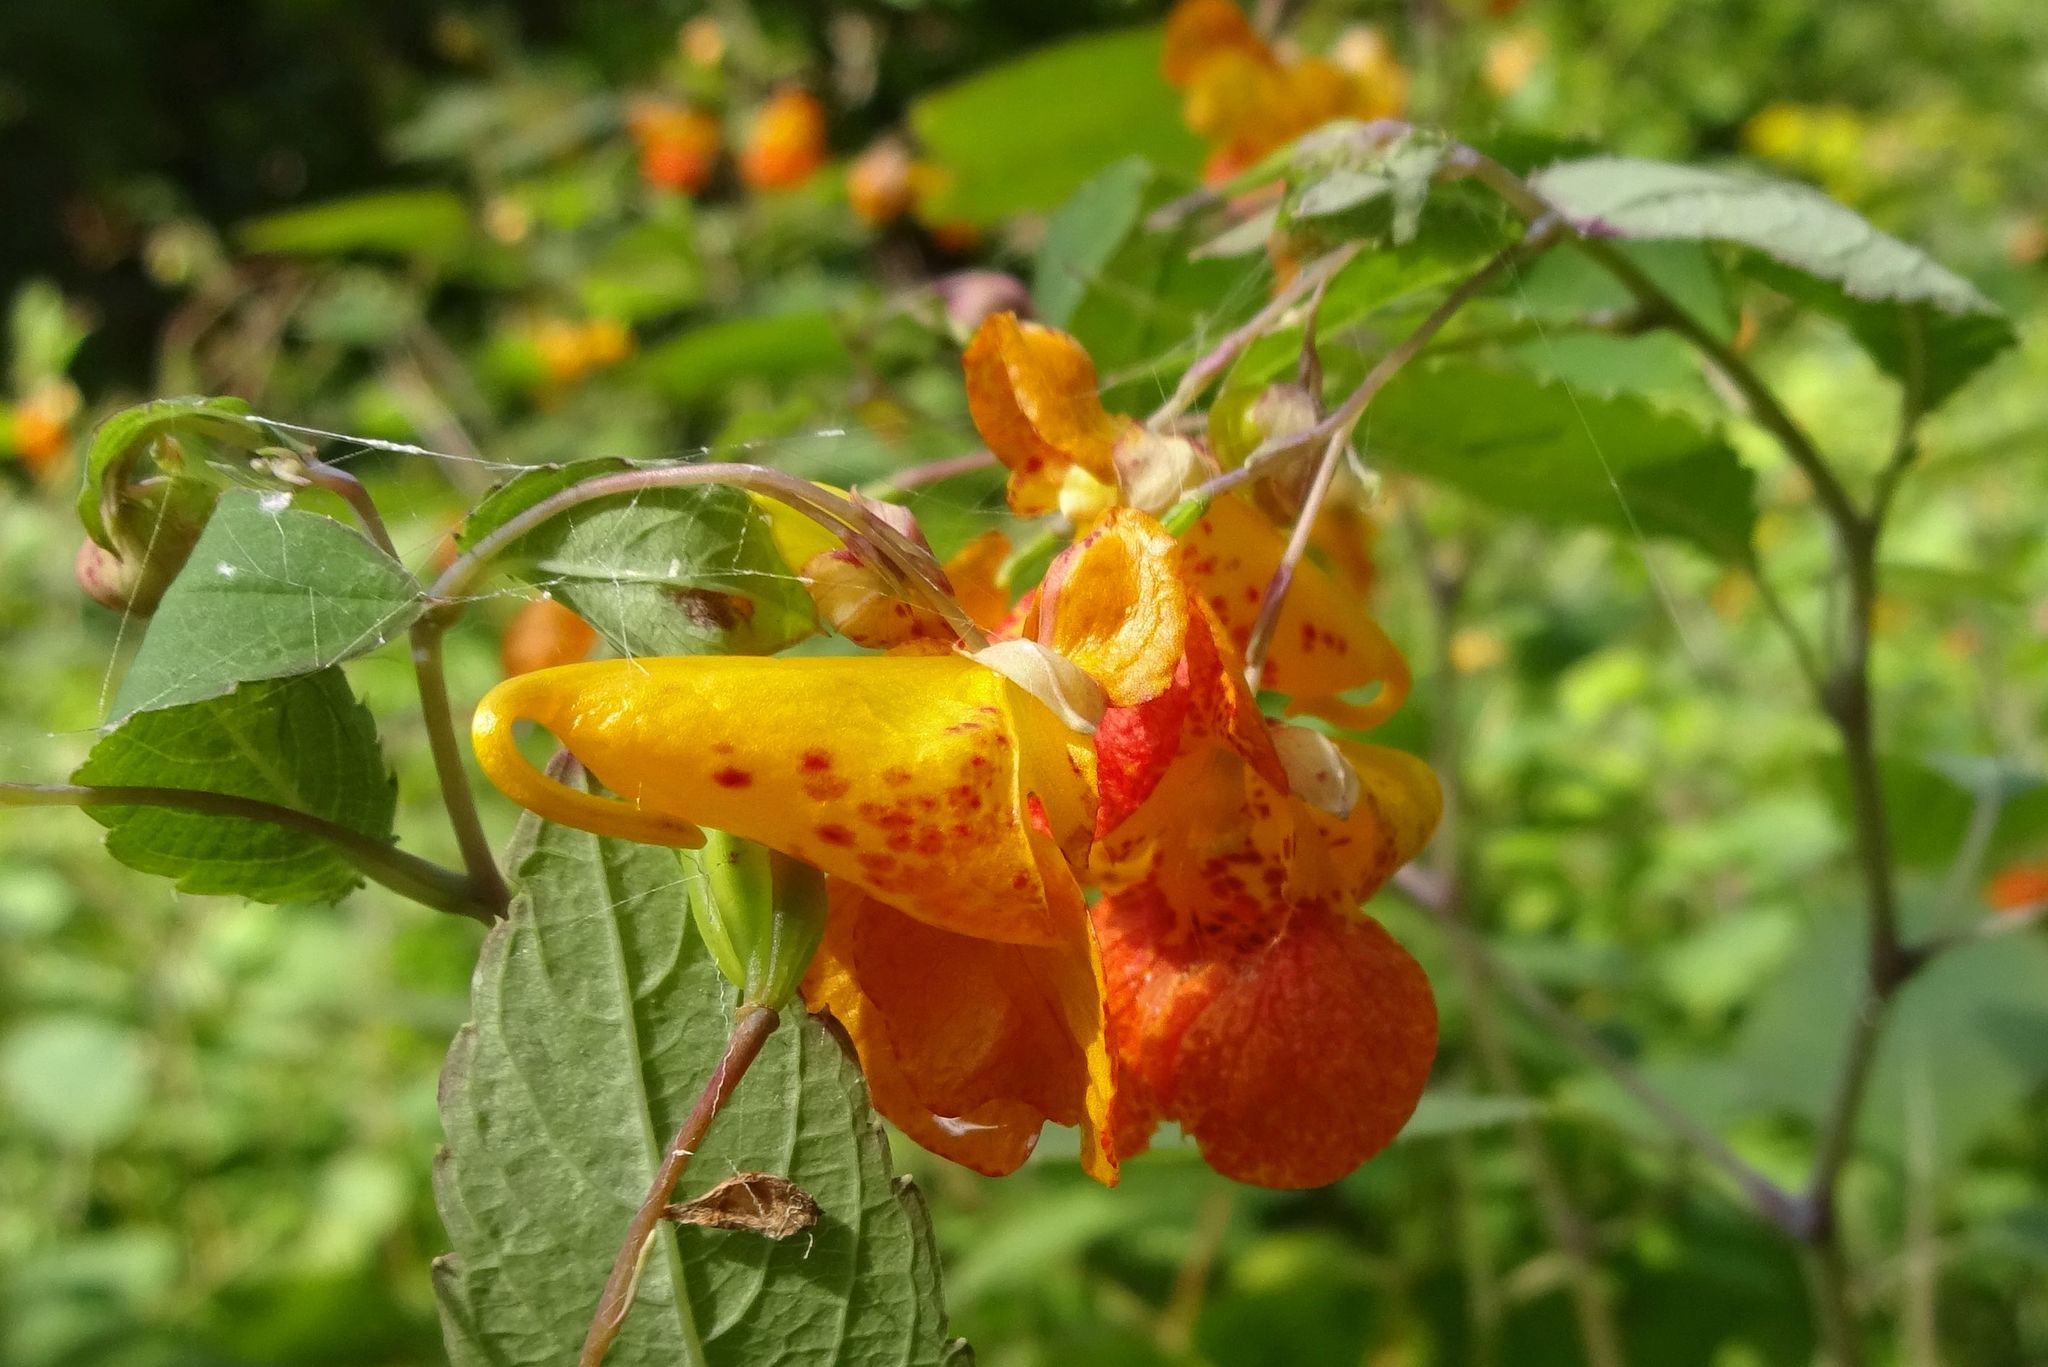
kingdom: Plantae
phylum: Tracheophyta
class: Magnoliopsida
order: Ericales
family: Balsaminaceae
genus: Impatiens
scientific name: Impatiens capensis
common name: Orange balsam
